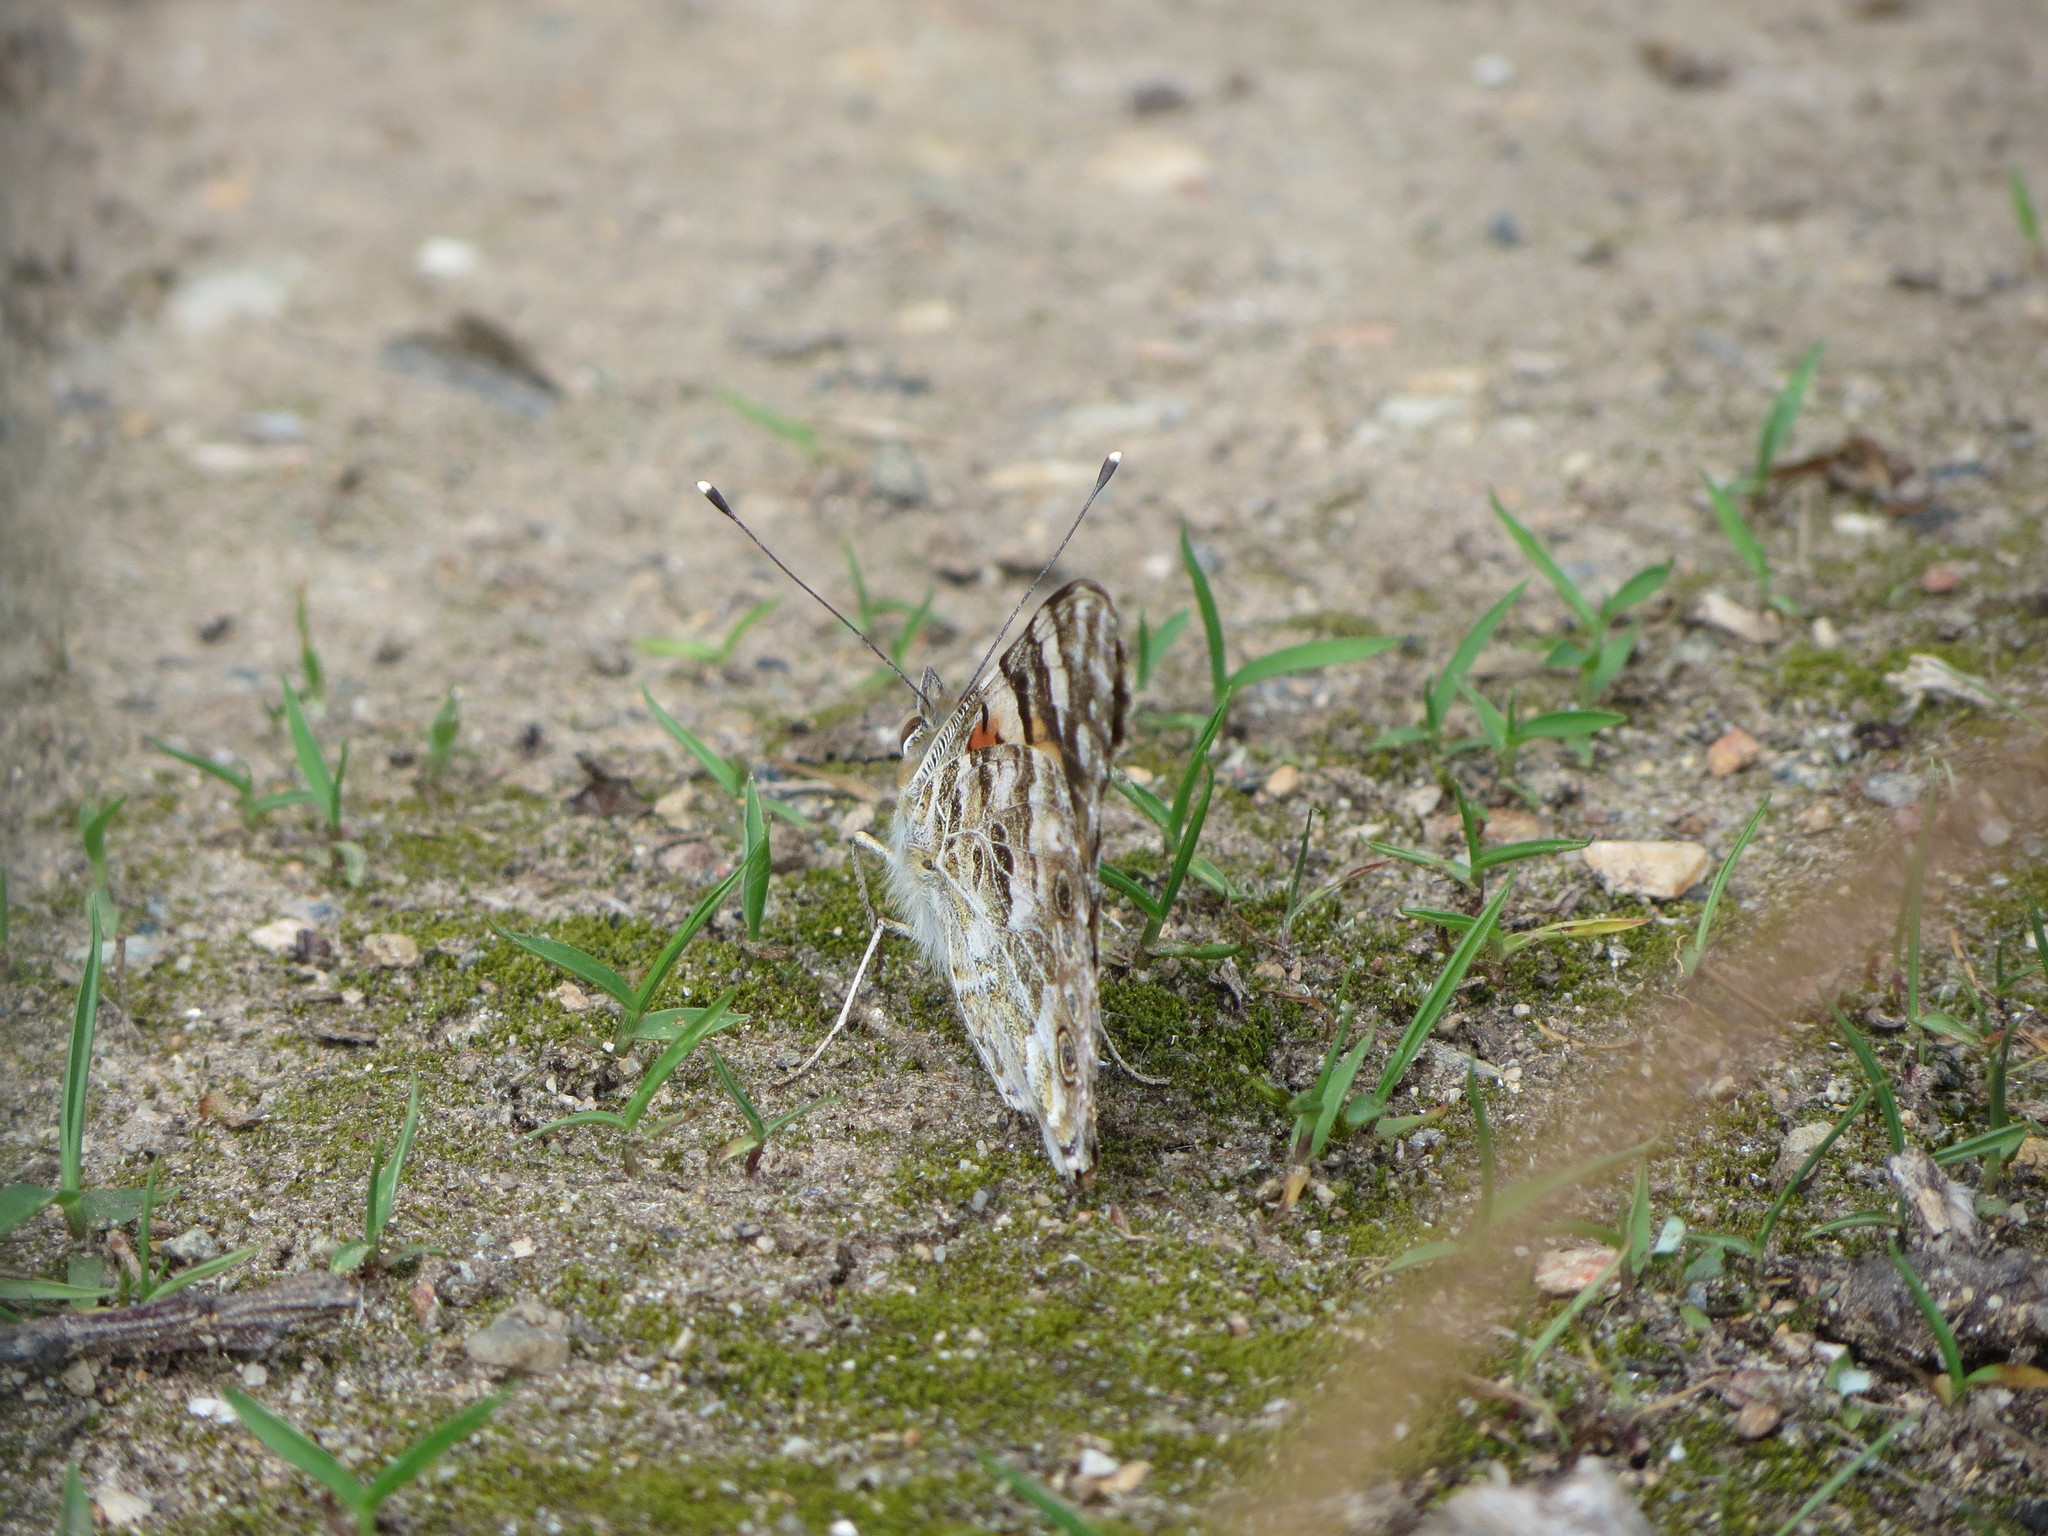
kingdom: Animalia
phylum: Arthropoda
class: Insecta
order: Lepidoptera
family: Nymphalidae
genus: Vanessa
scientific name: Vanessa cardui
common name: Painted lady
